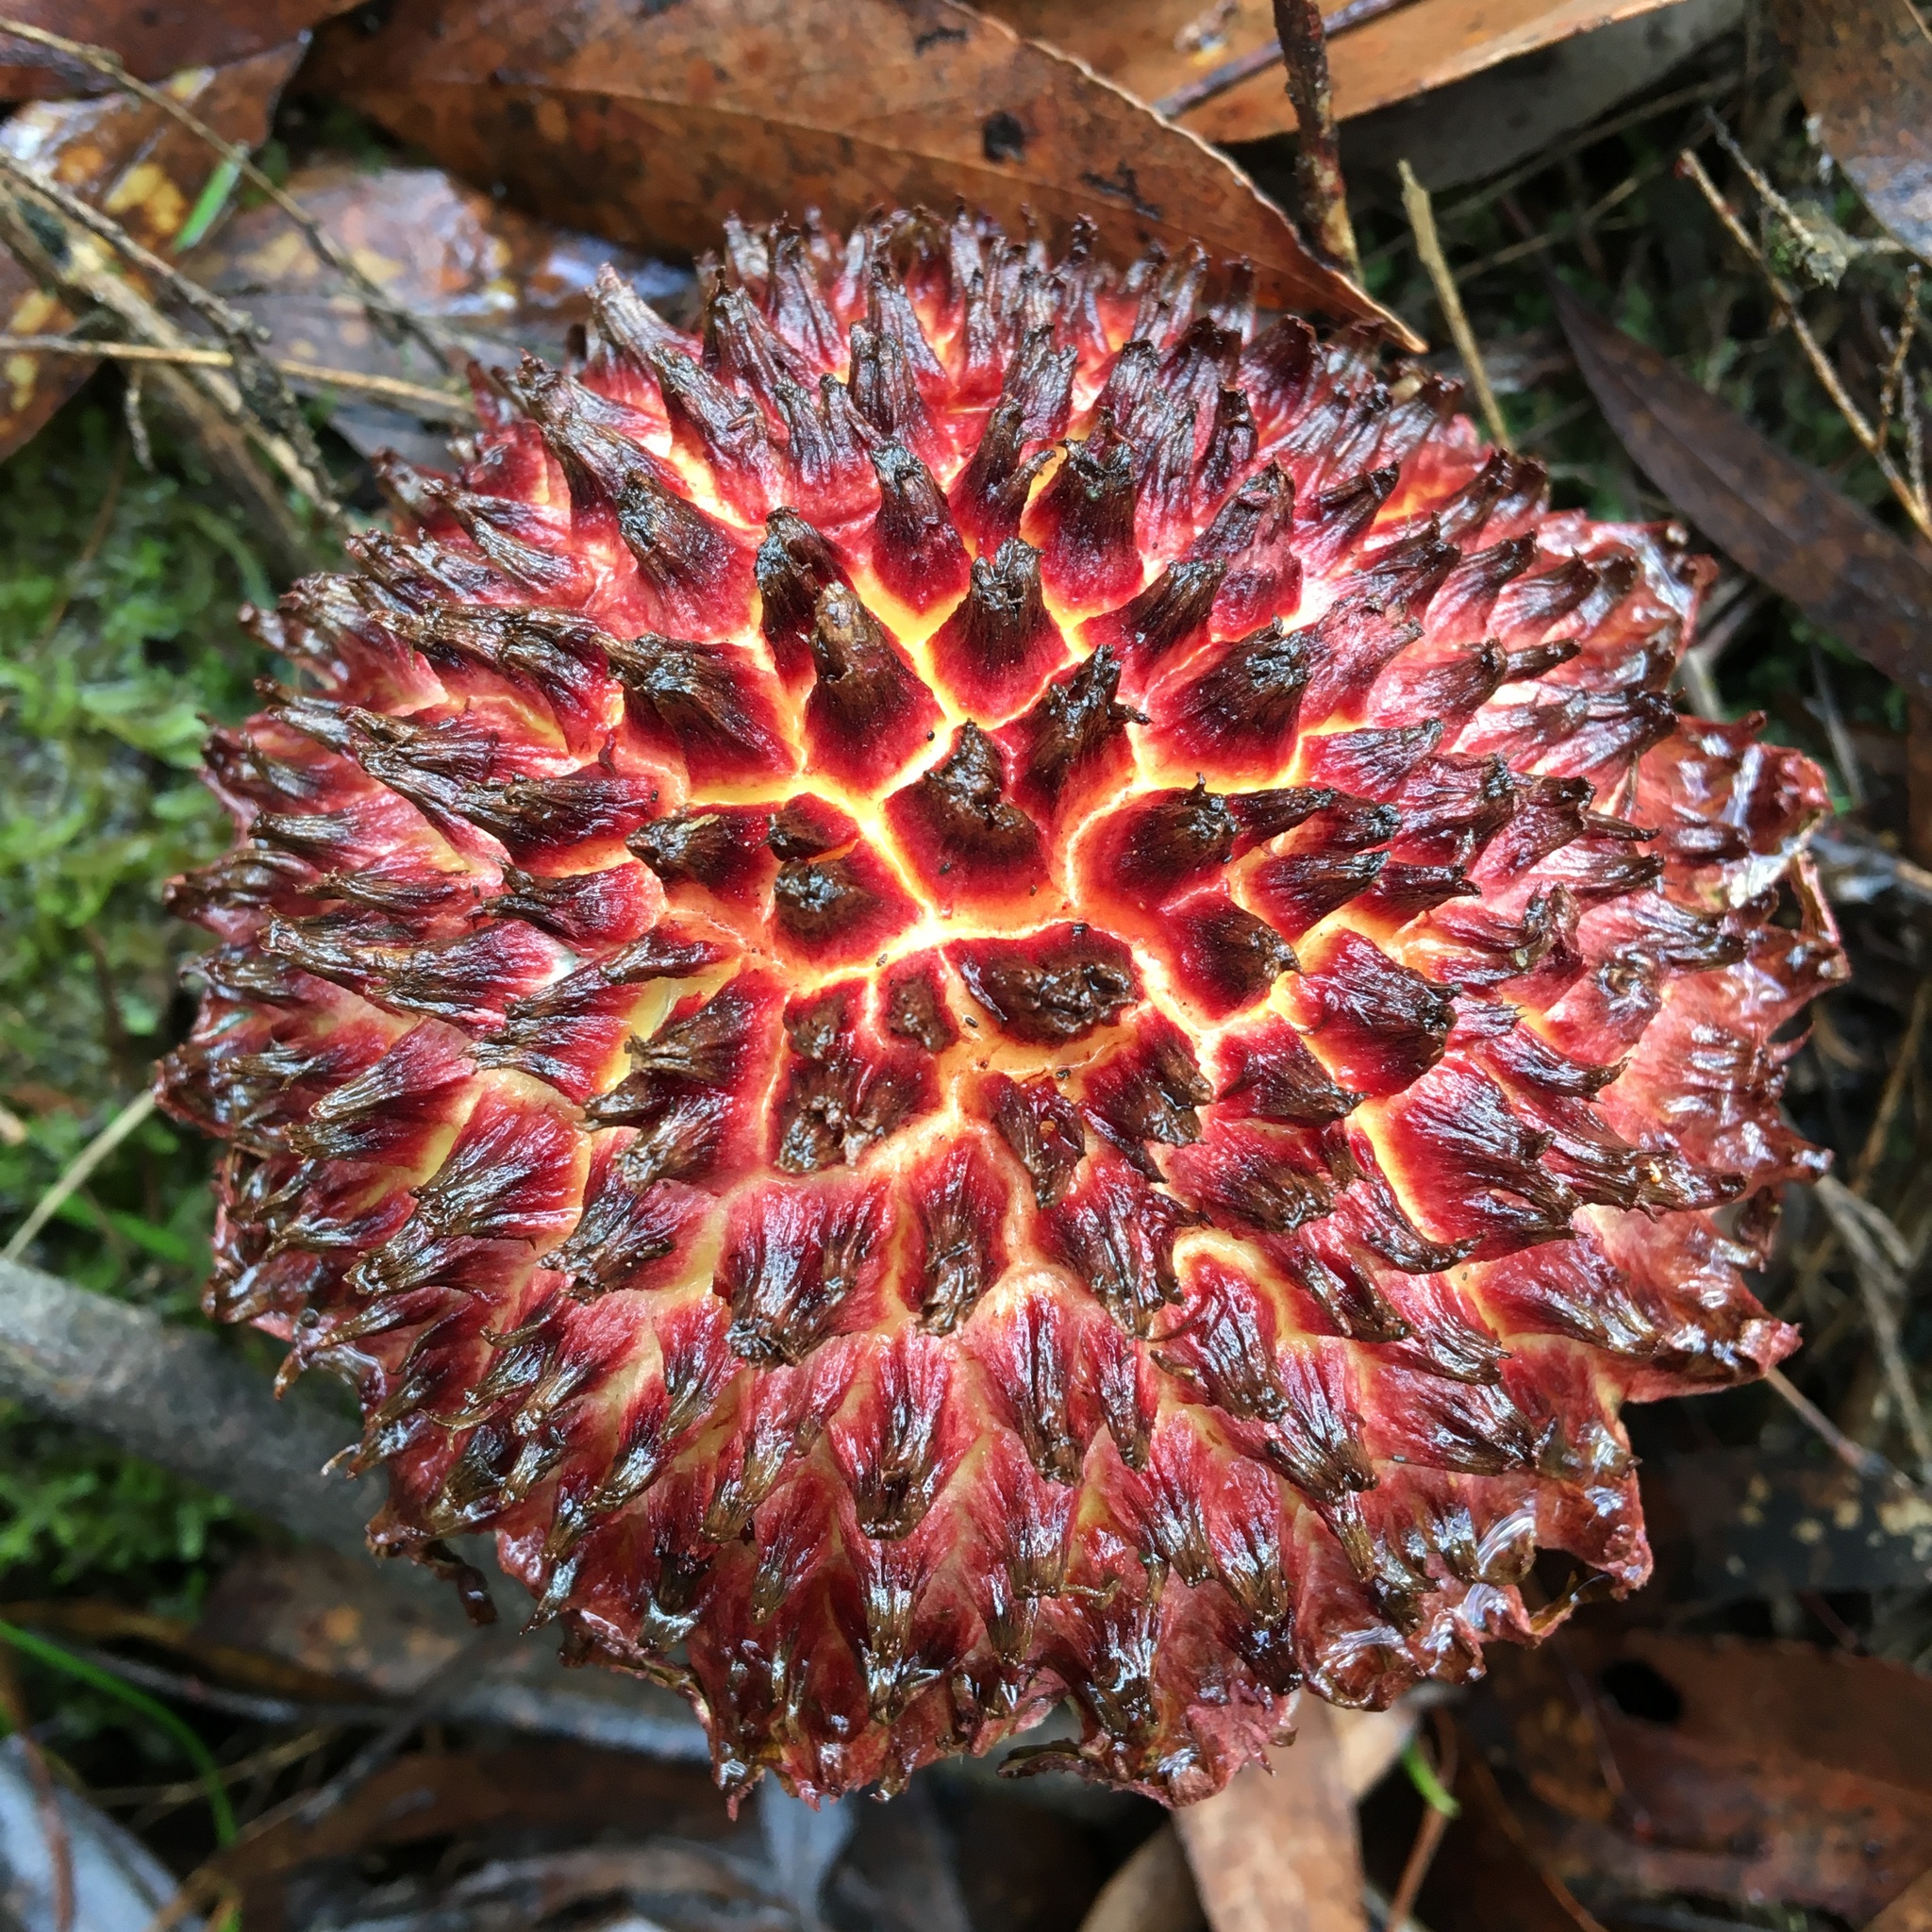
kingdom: Fungi
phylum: Basidiomycota
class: Agaricomycetes
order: Boletales
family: Boletaceae
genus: Boletellus
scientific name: Boletellus emodensis
